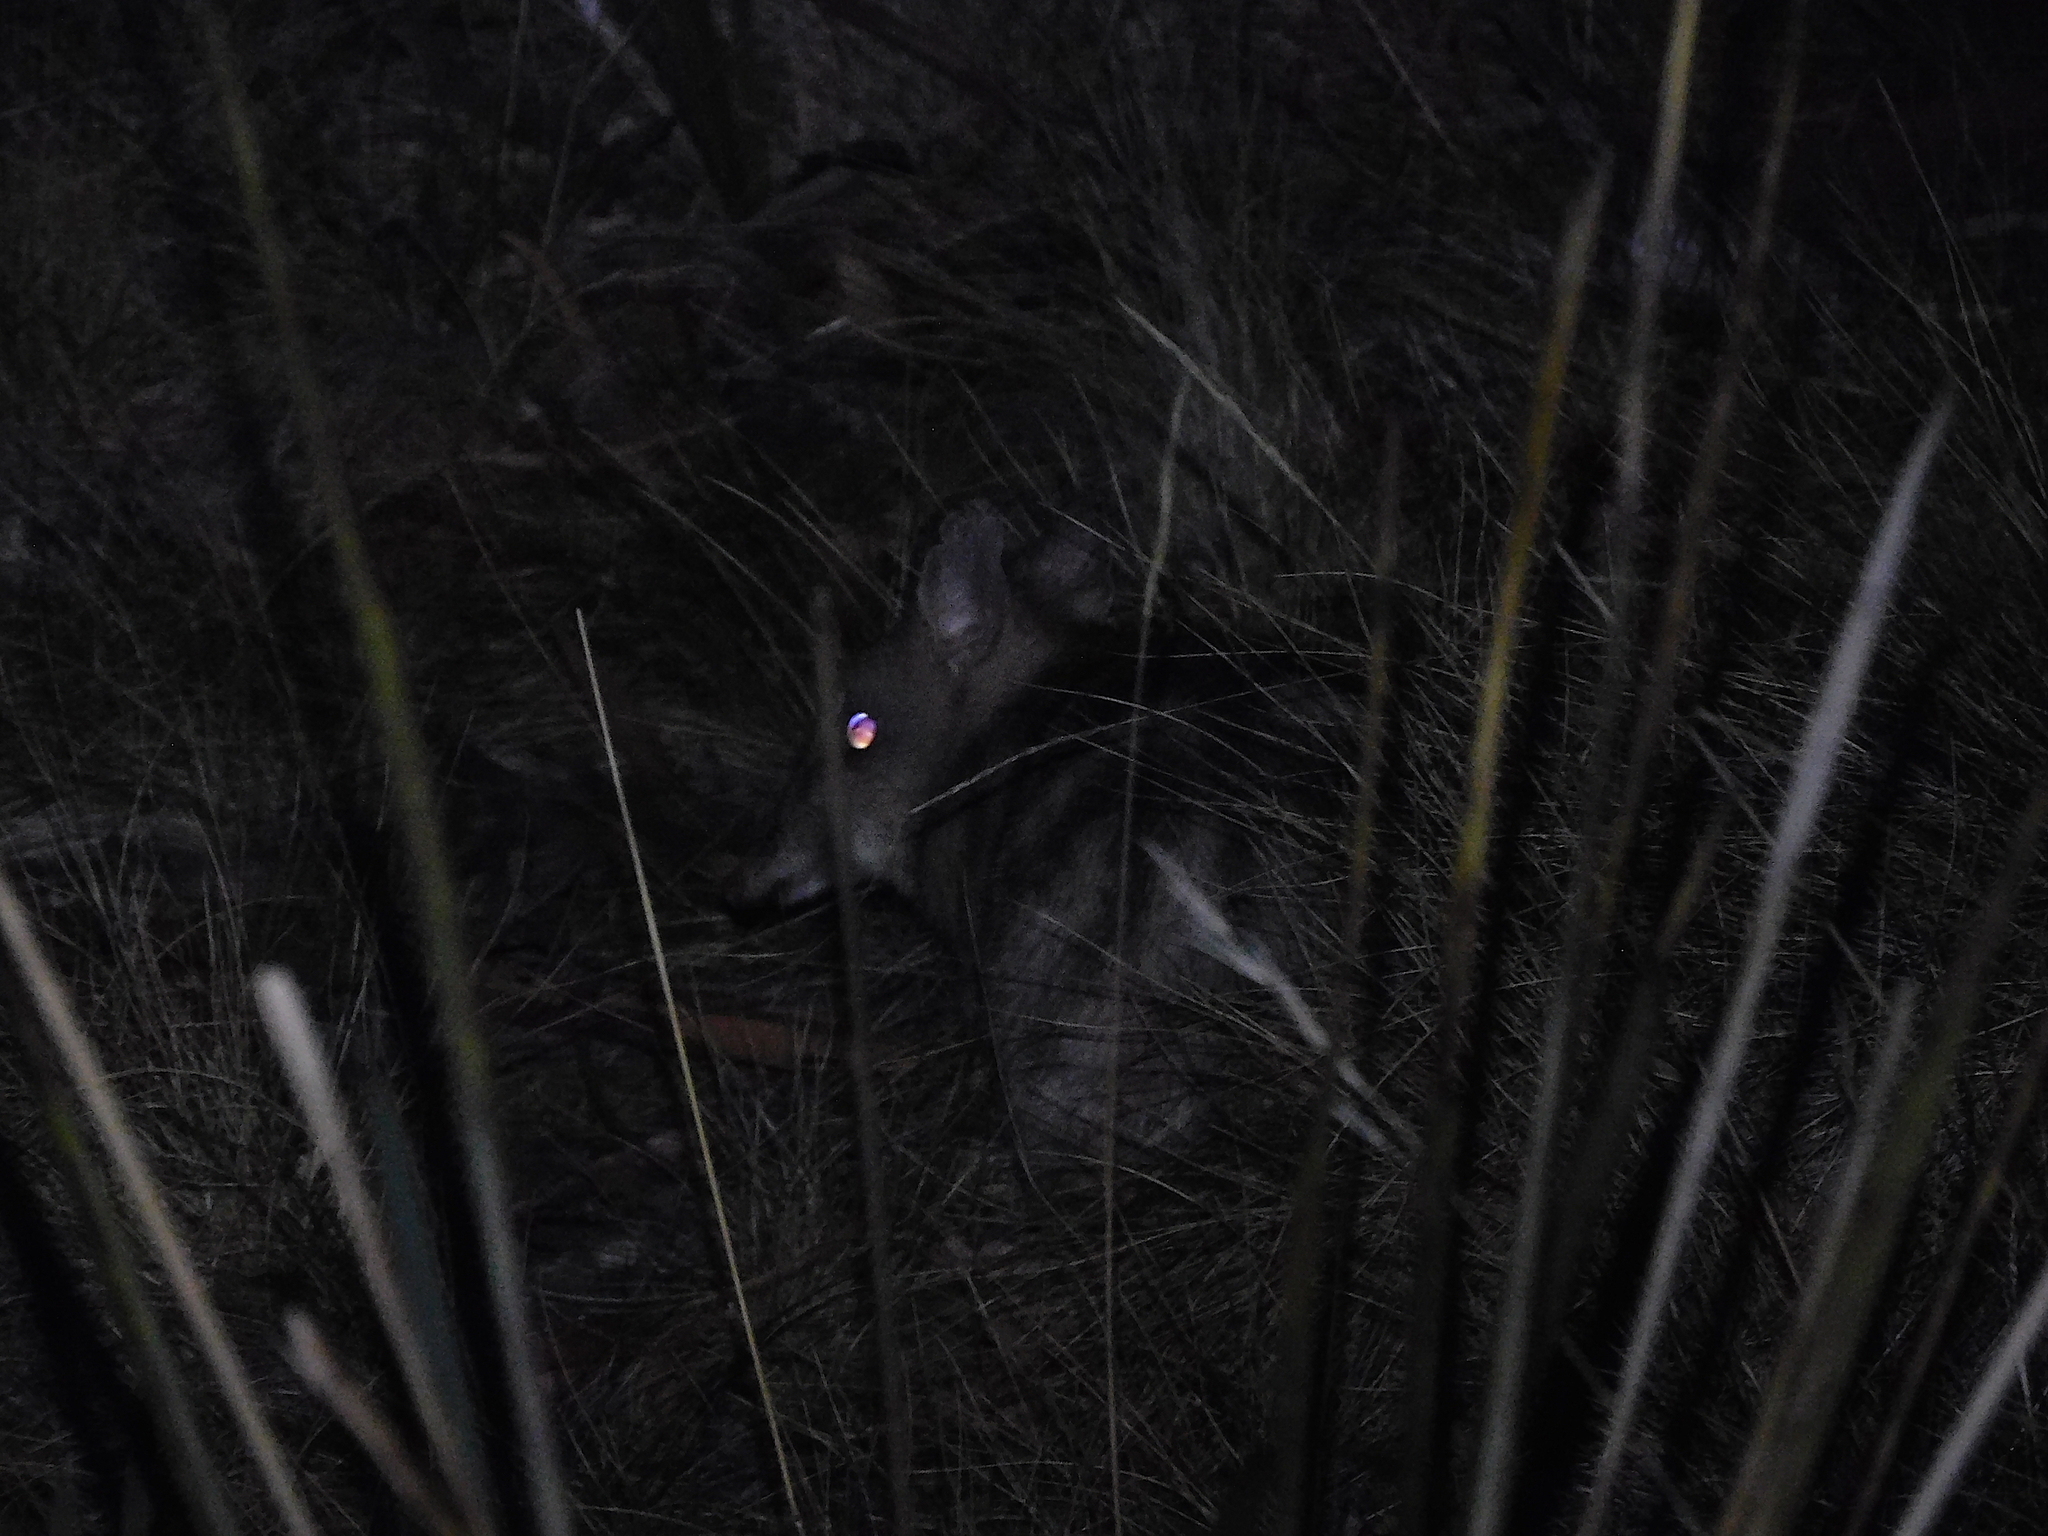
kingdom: Animalia
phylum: Chordata
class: Mammalia
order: Peramelemorphia
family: Peramelidae
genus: Perameles
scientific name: Perameles gunnii
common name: Eastern barred bandicoot
